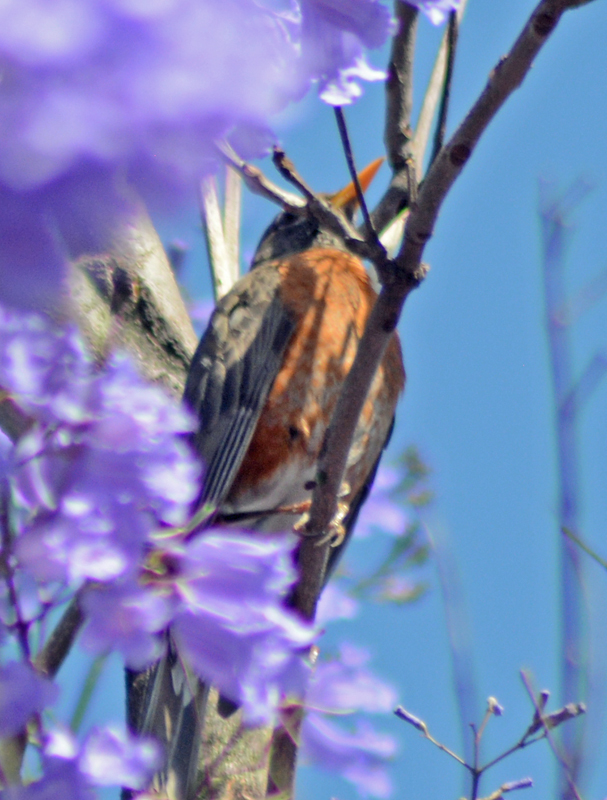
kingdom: Animalia
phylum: Chordata
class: Aves
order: Passeriformes
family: Turdidae
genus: Turdus
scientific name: Turdus migratorius
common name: American robin
